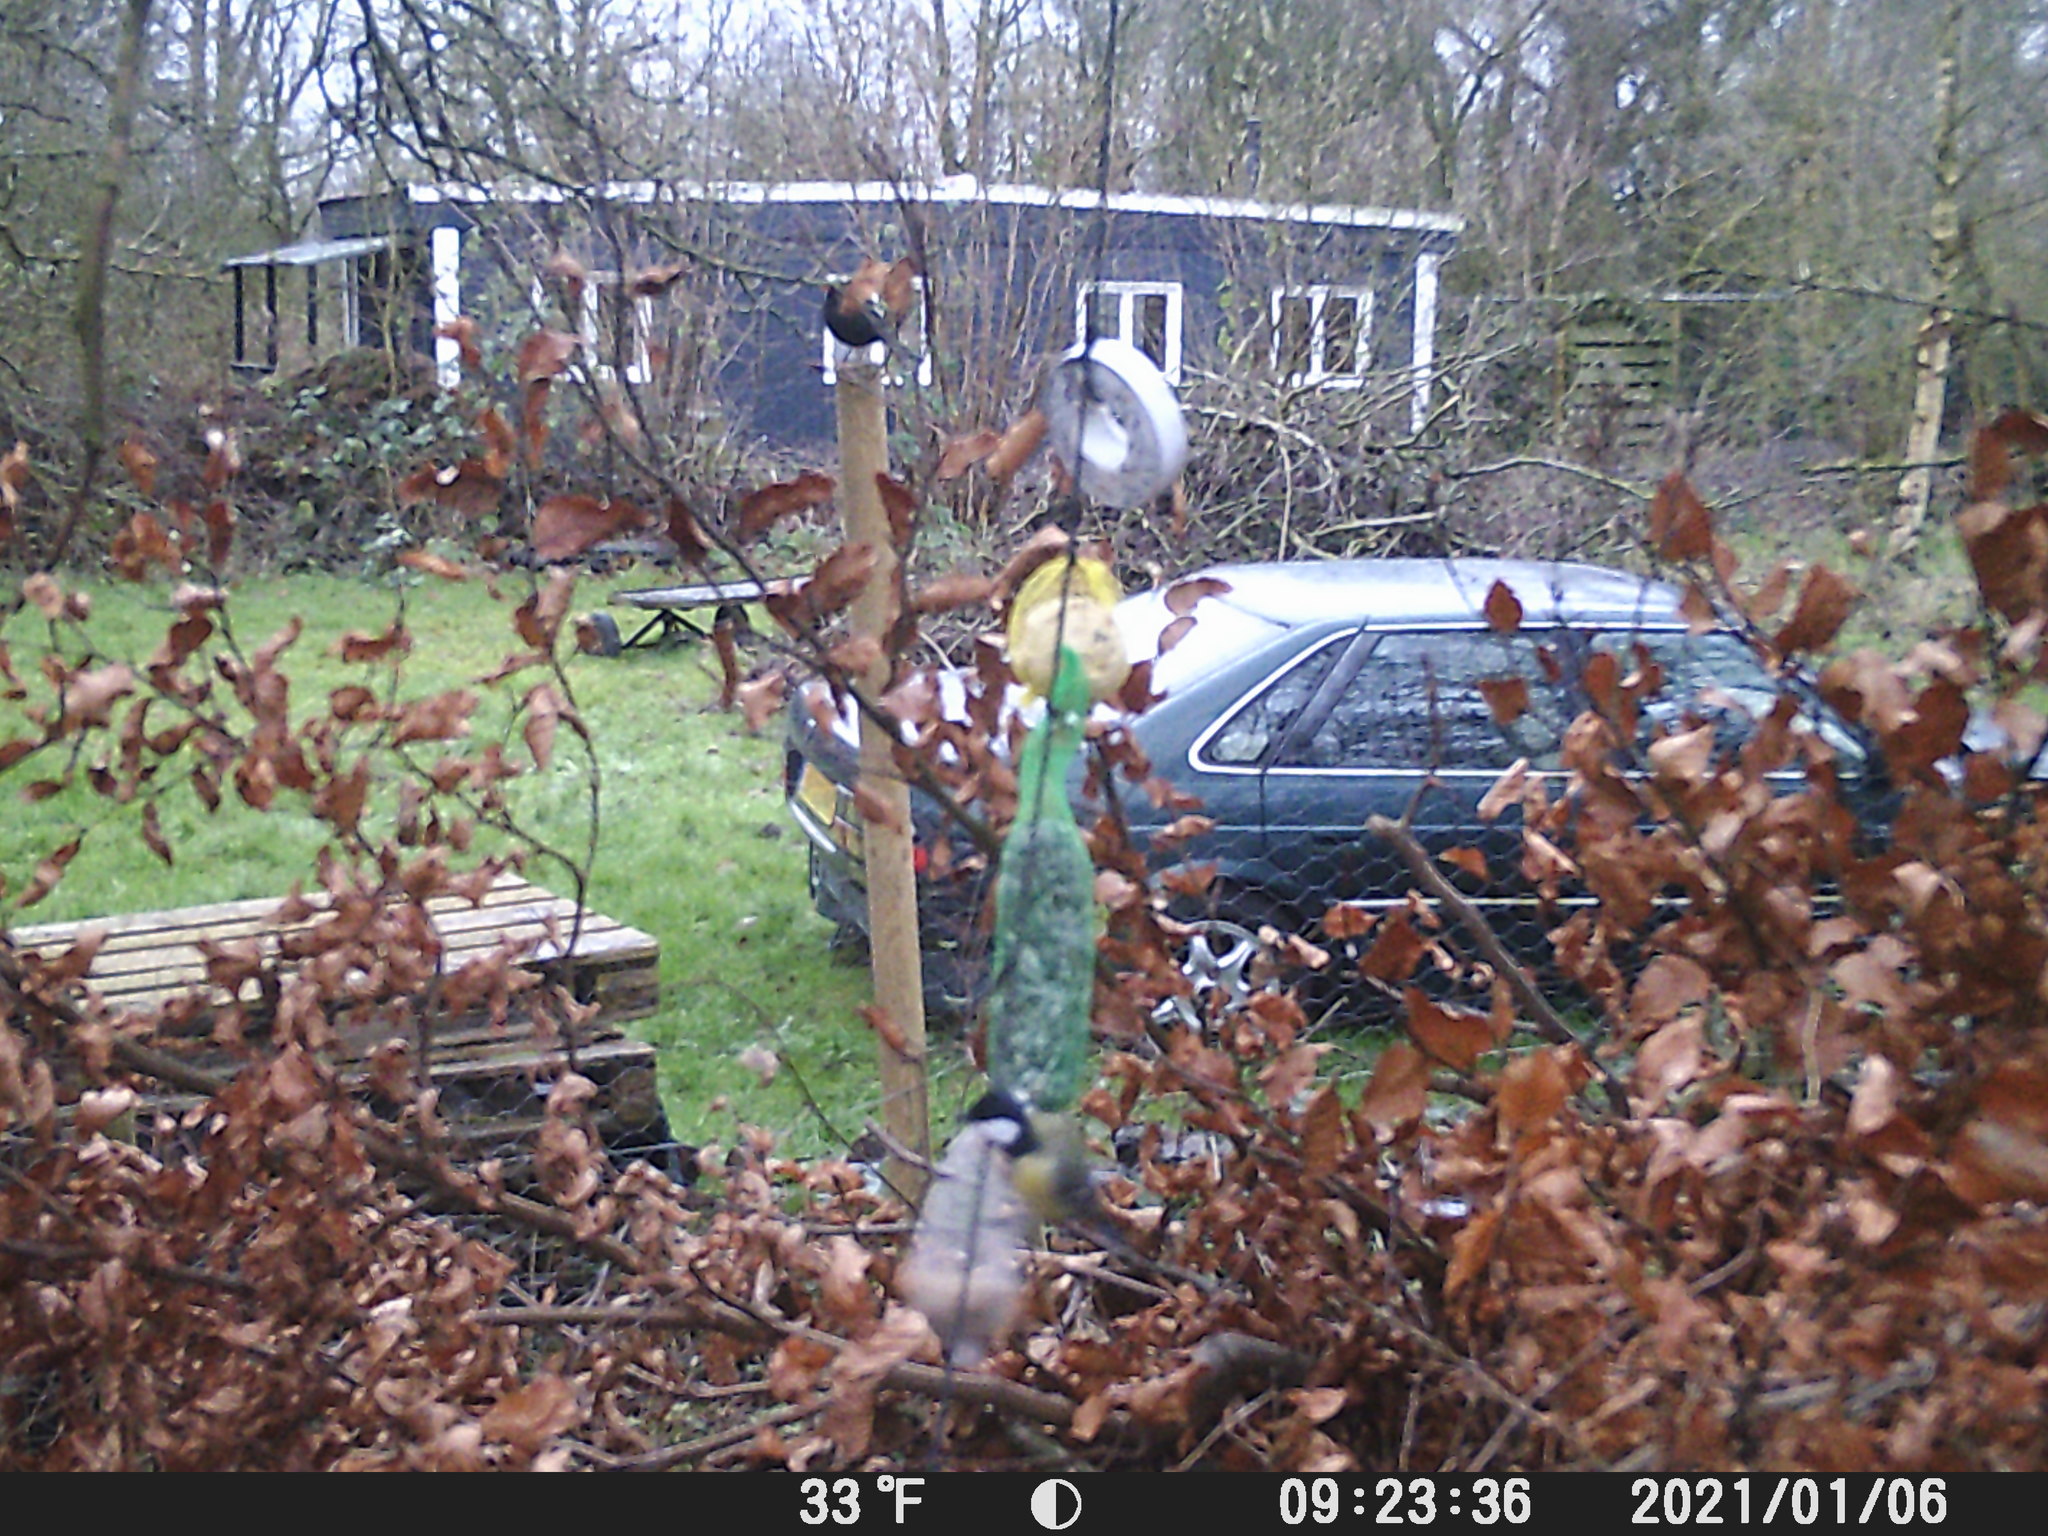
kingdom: Animalia
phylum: Chordata
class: Aves
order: Passeriformes
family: Paridae
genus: Parus
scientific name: Parus major
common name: Great tit
